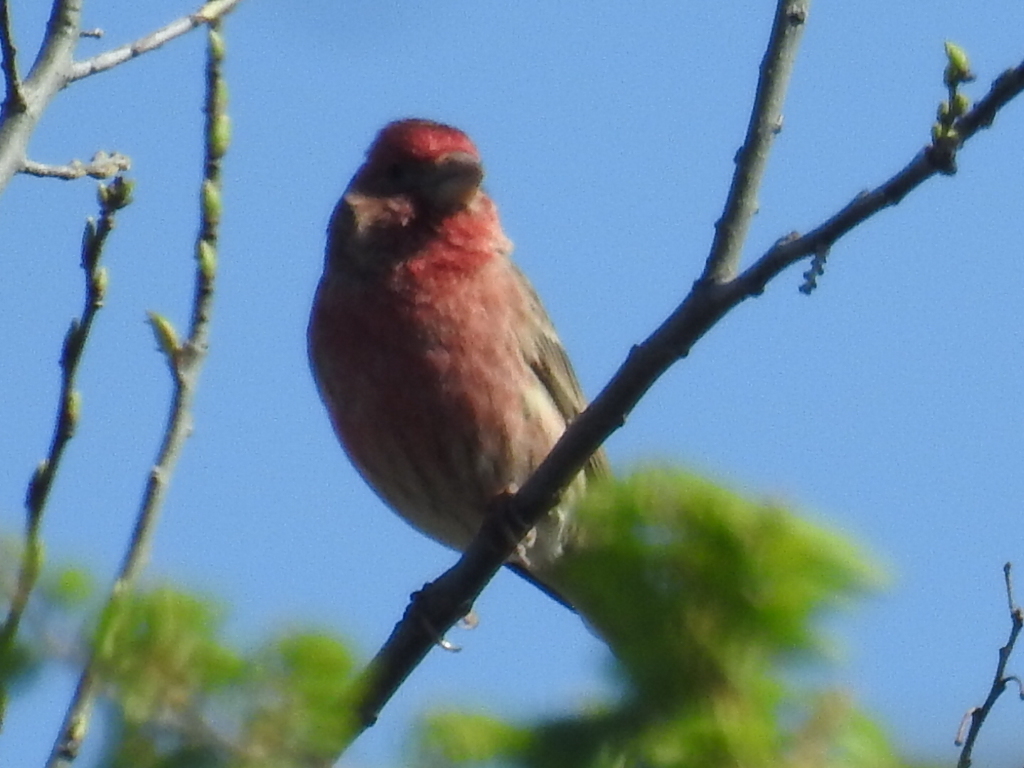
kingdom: Animalia
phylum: Chordata
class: Aves
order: Passeriformes
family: Fringillidae
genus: Haemorhous
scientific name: Haemorhous mexicanus
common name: House finch
